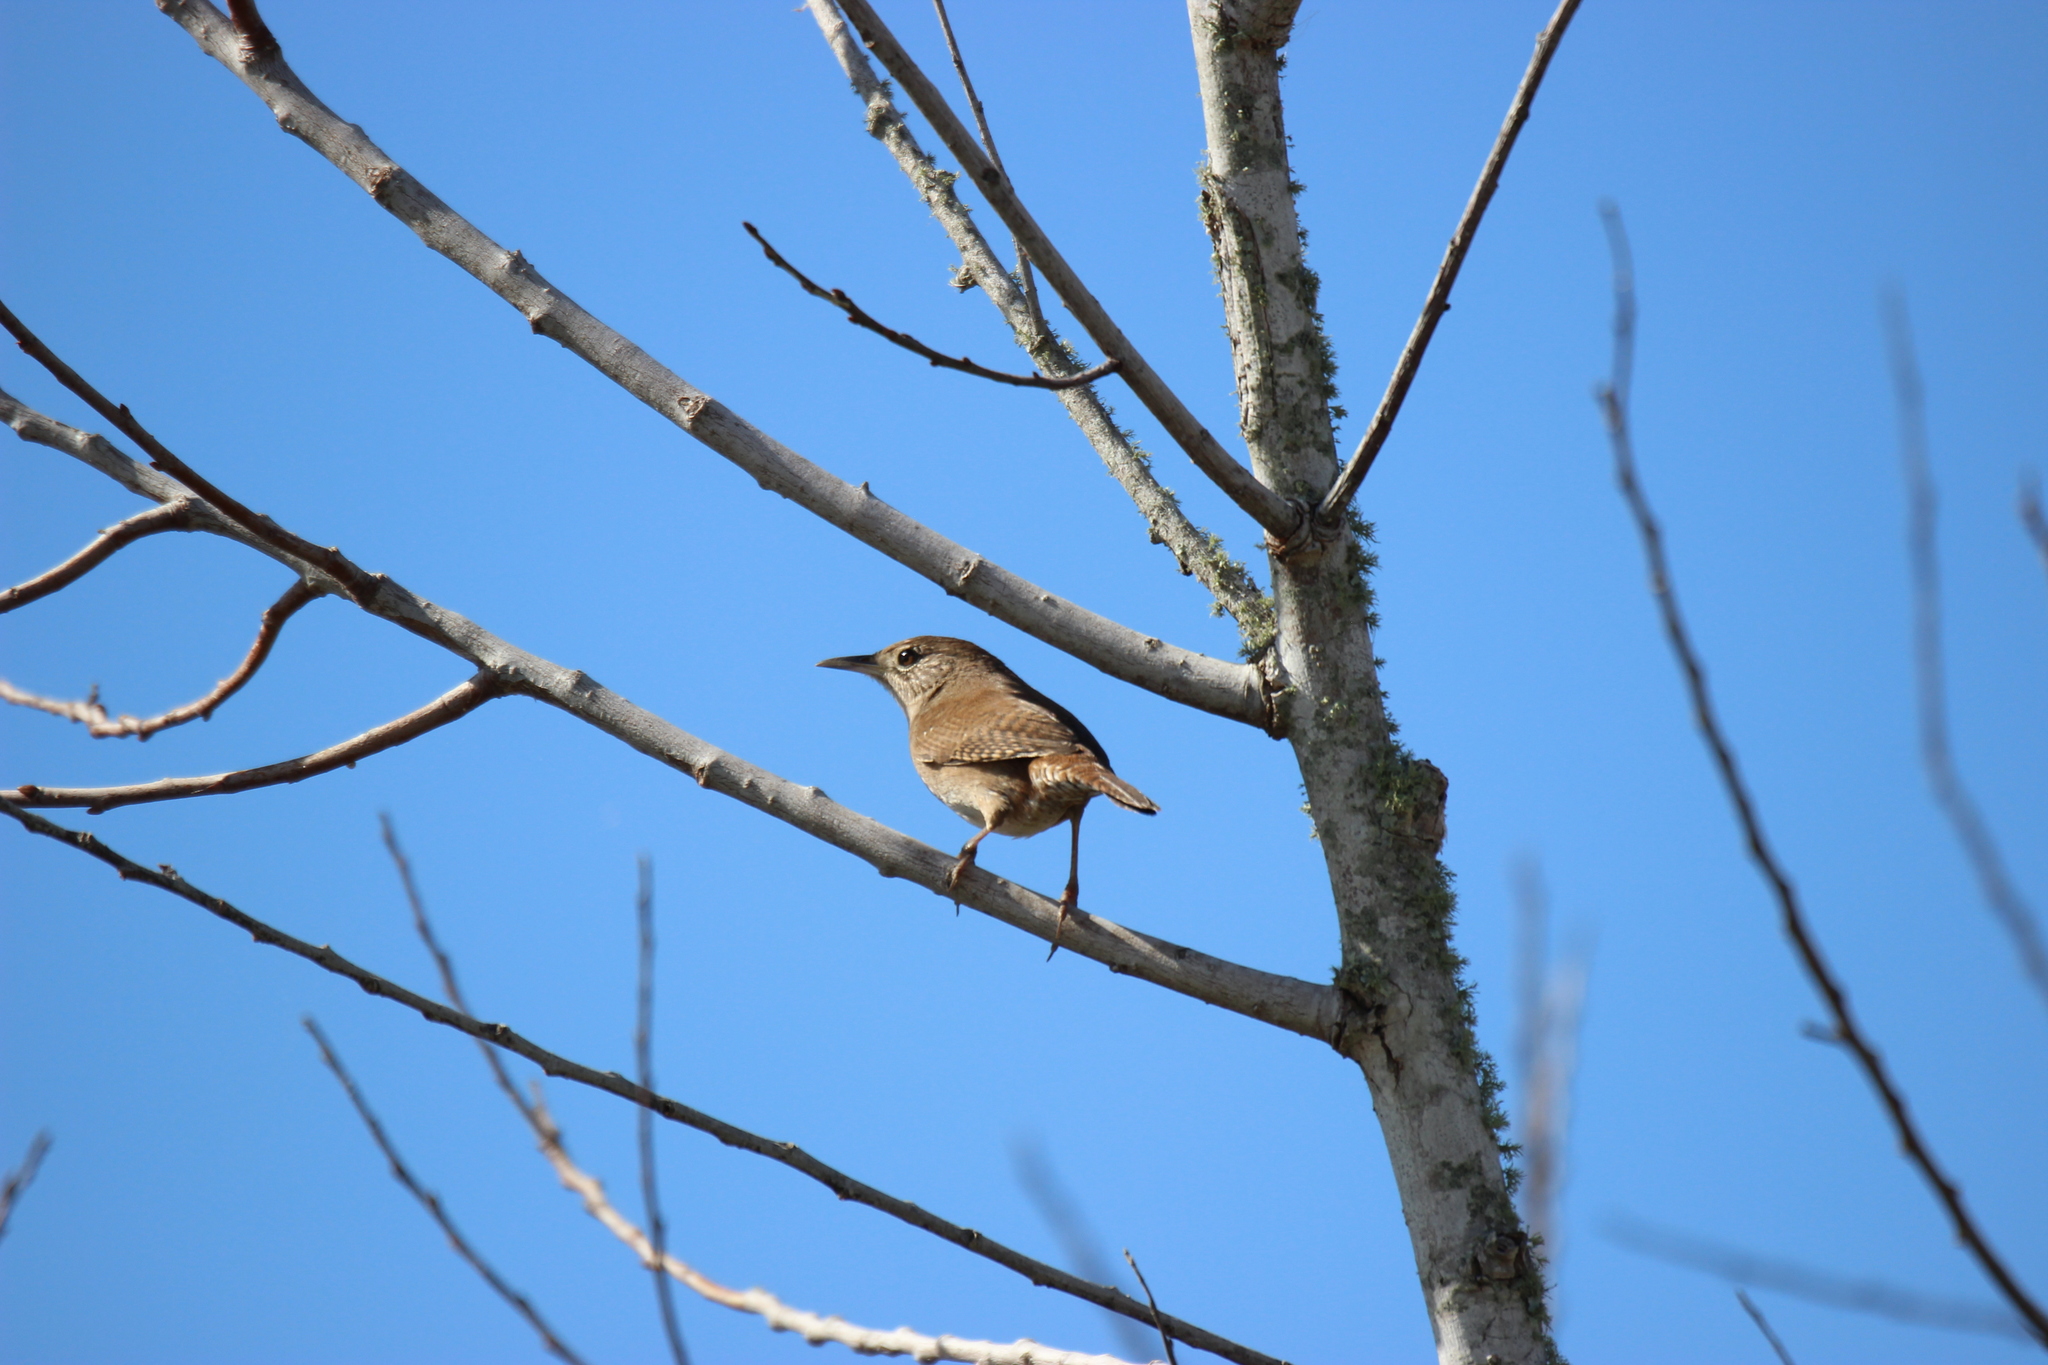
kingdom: Animalia
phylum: Chordata
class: Aves
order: Passeriformes
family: Troglodytidae
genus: Troglodytes
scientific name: Troglodytes aedon
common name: House wren
